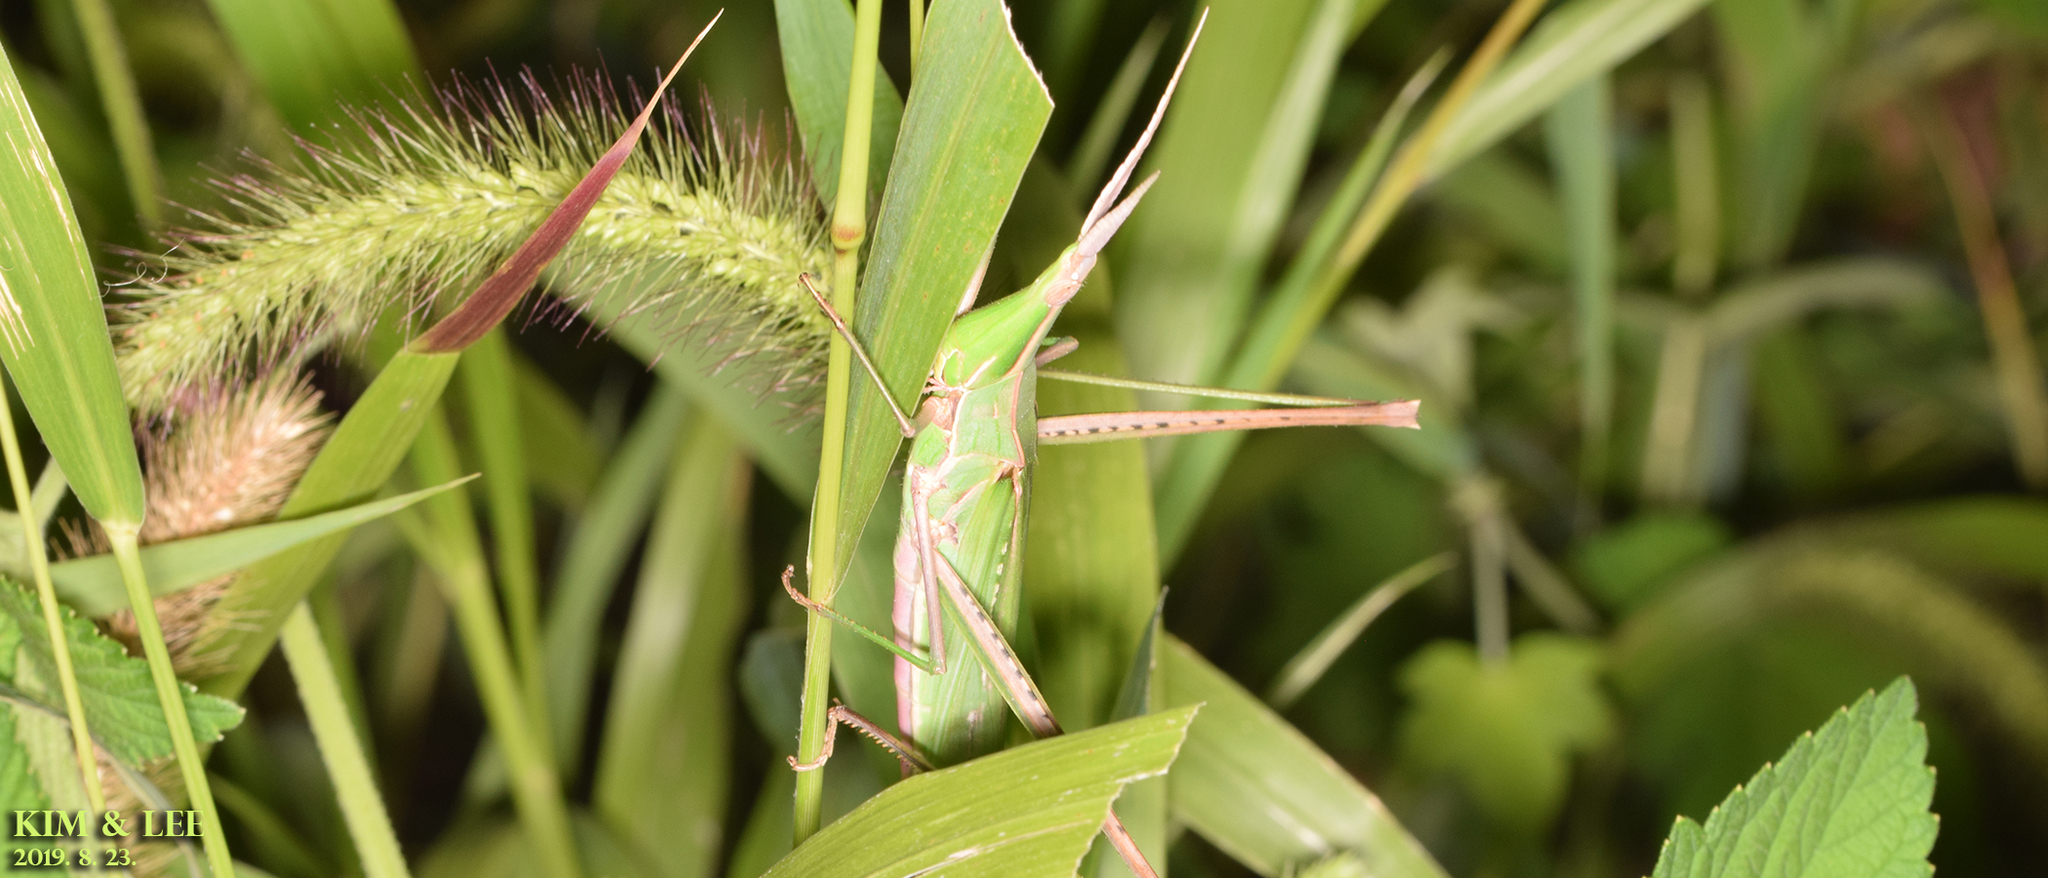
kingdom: Animalia
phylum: Arthropoda
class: Insecta
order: Orthoptera
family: Acrididae
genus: Acrida
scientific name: Acrida cinerea
